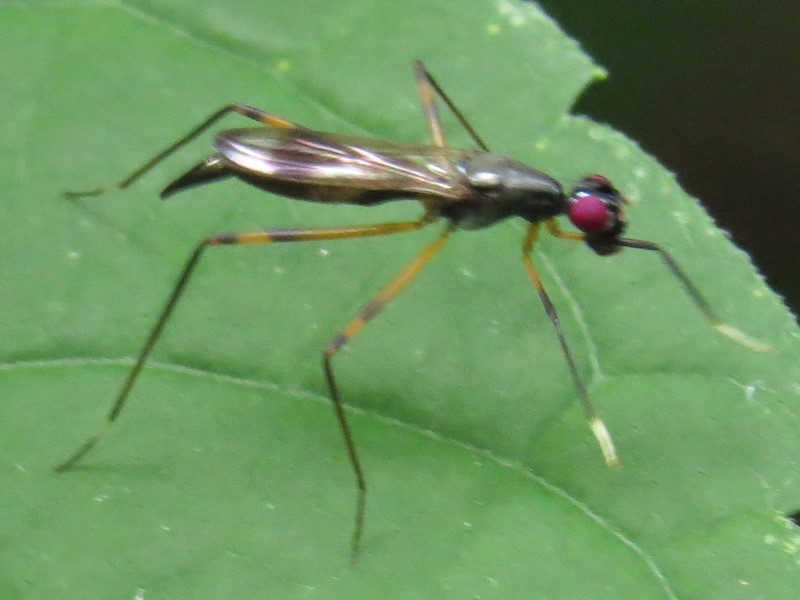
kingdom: Animalia
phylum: Arthropoda
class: Insecta
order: Diptera
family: Micropezidae
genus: Rainieria
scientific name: Rainieria antennaepes
